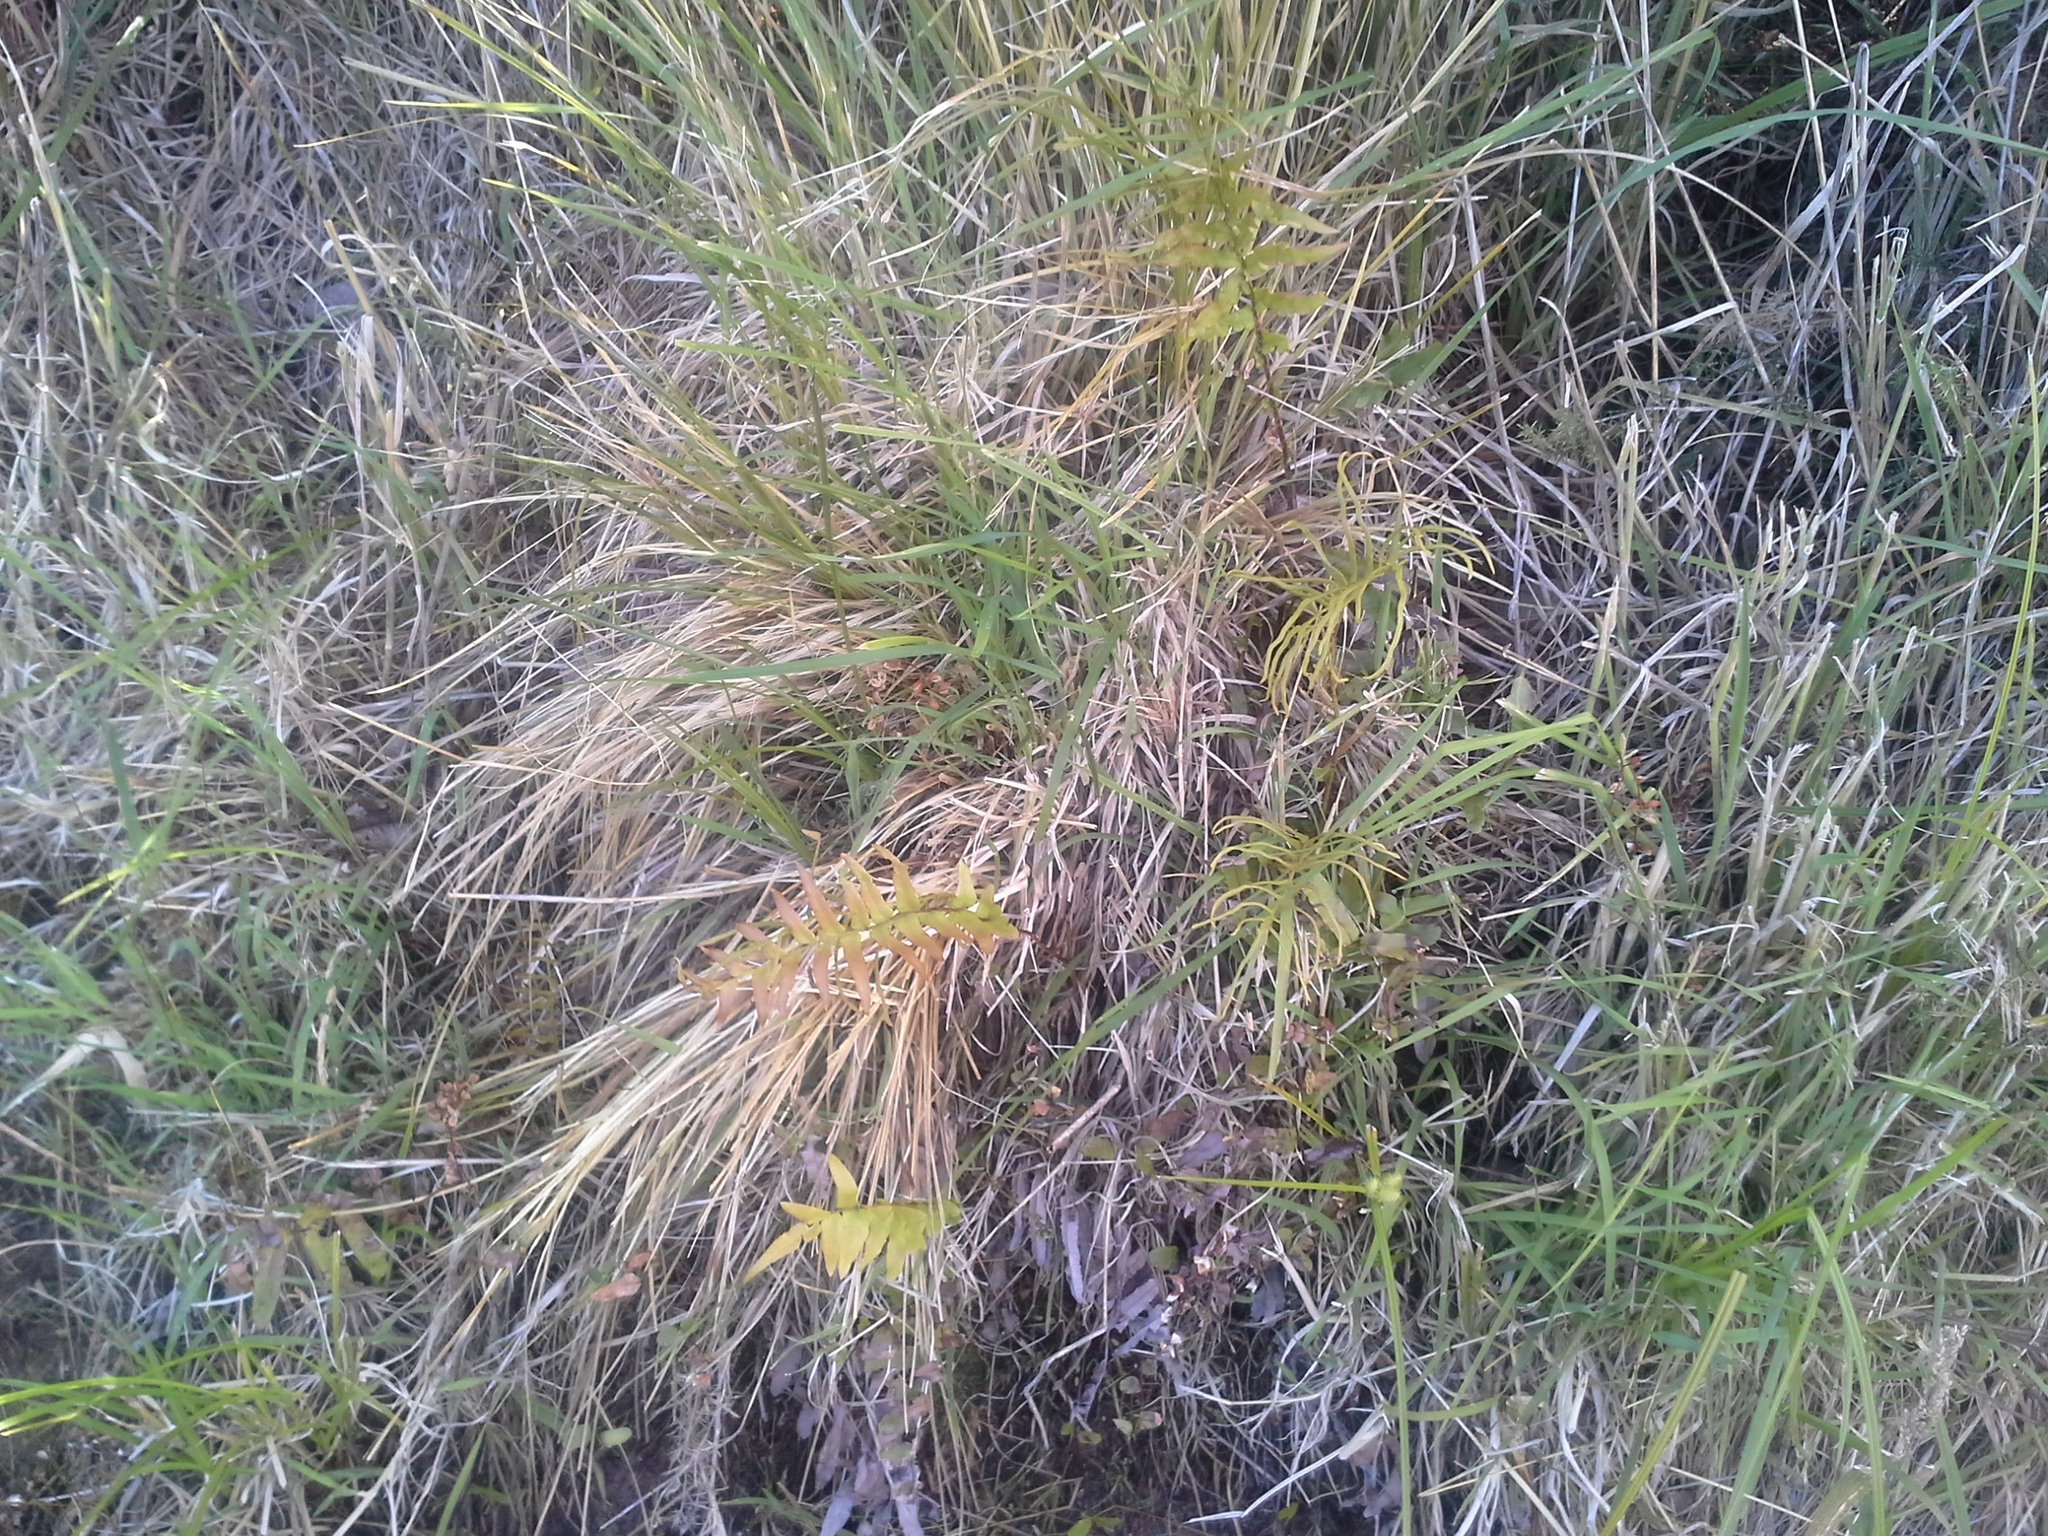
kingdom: Plantae
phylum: Tracheophyta
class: Polypodiopsida
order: Polypodiales
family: Blechnaceae
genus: Parablechnum
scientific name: Parablechnum minus
